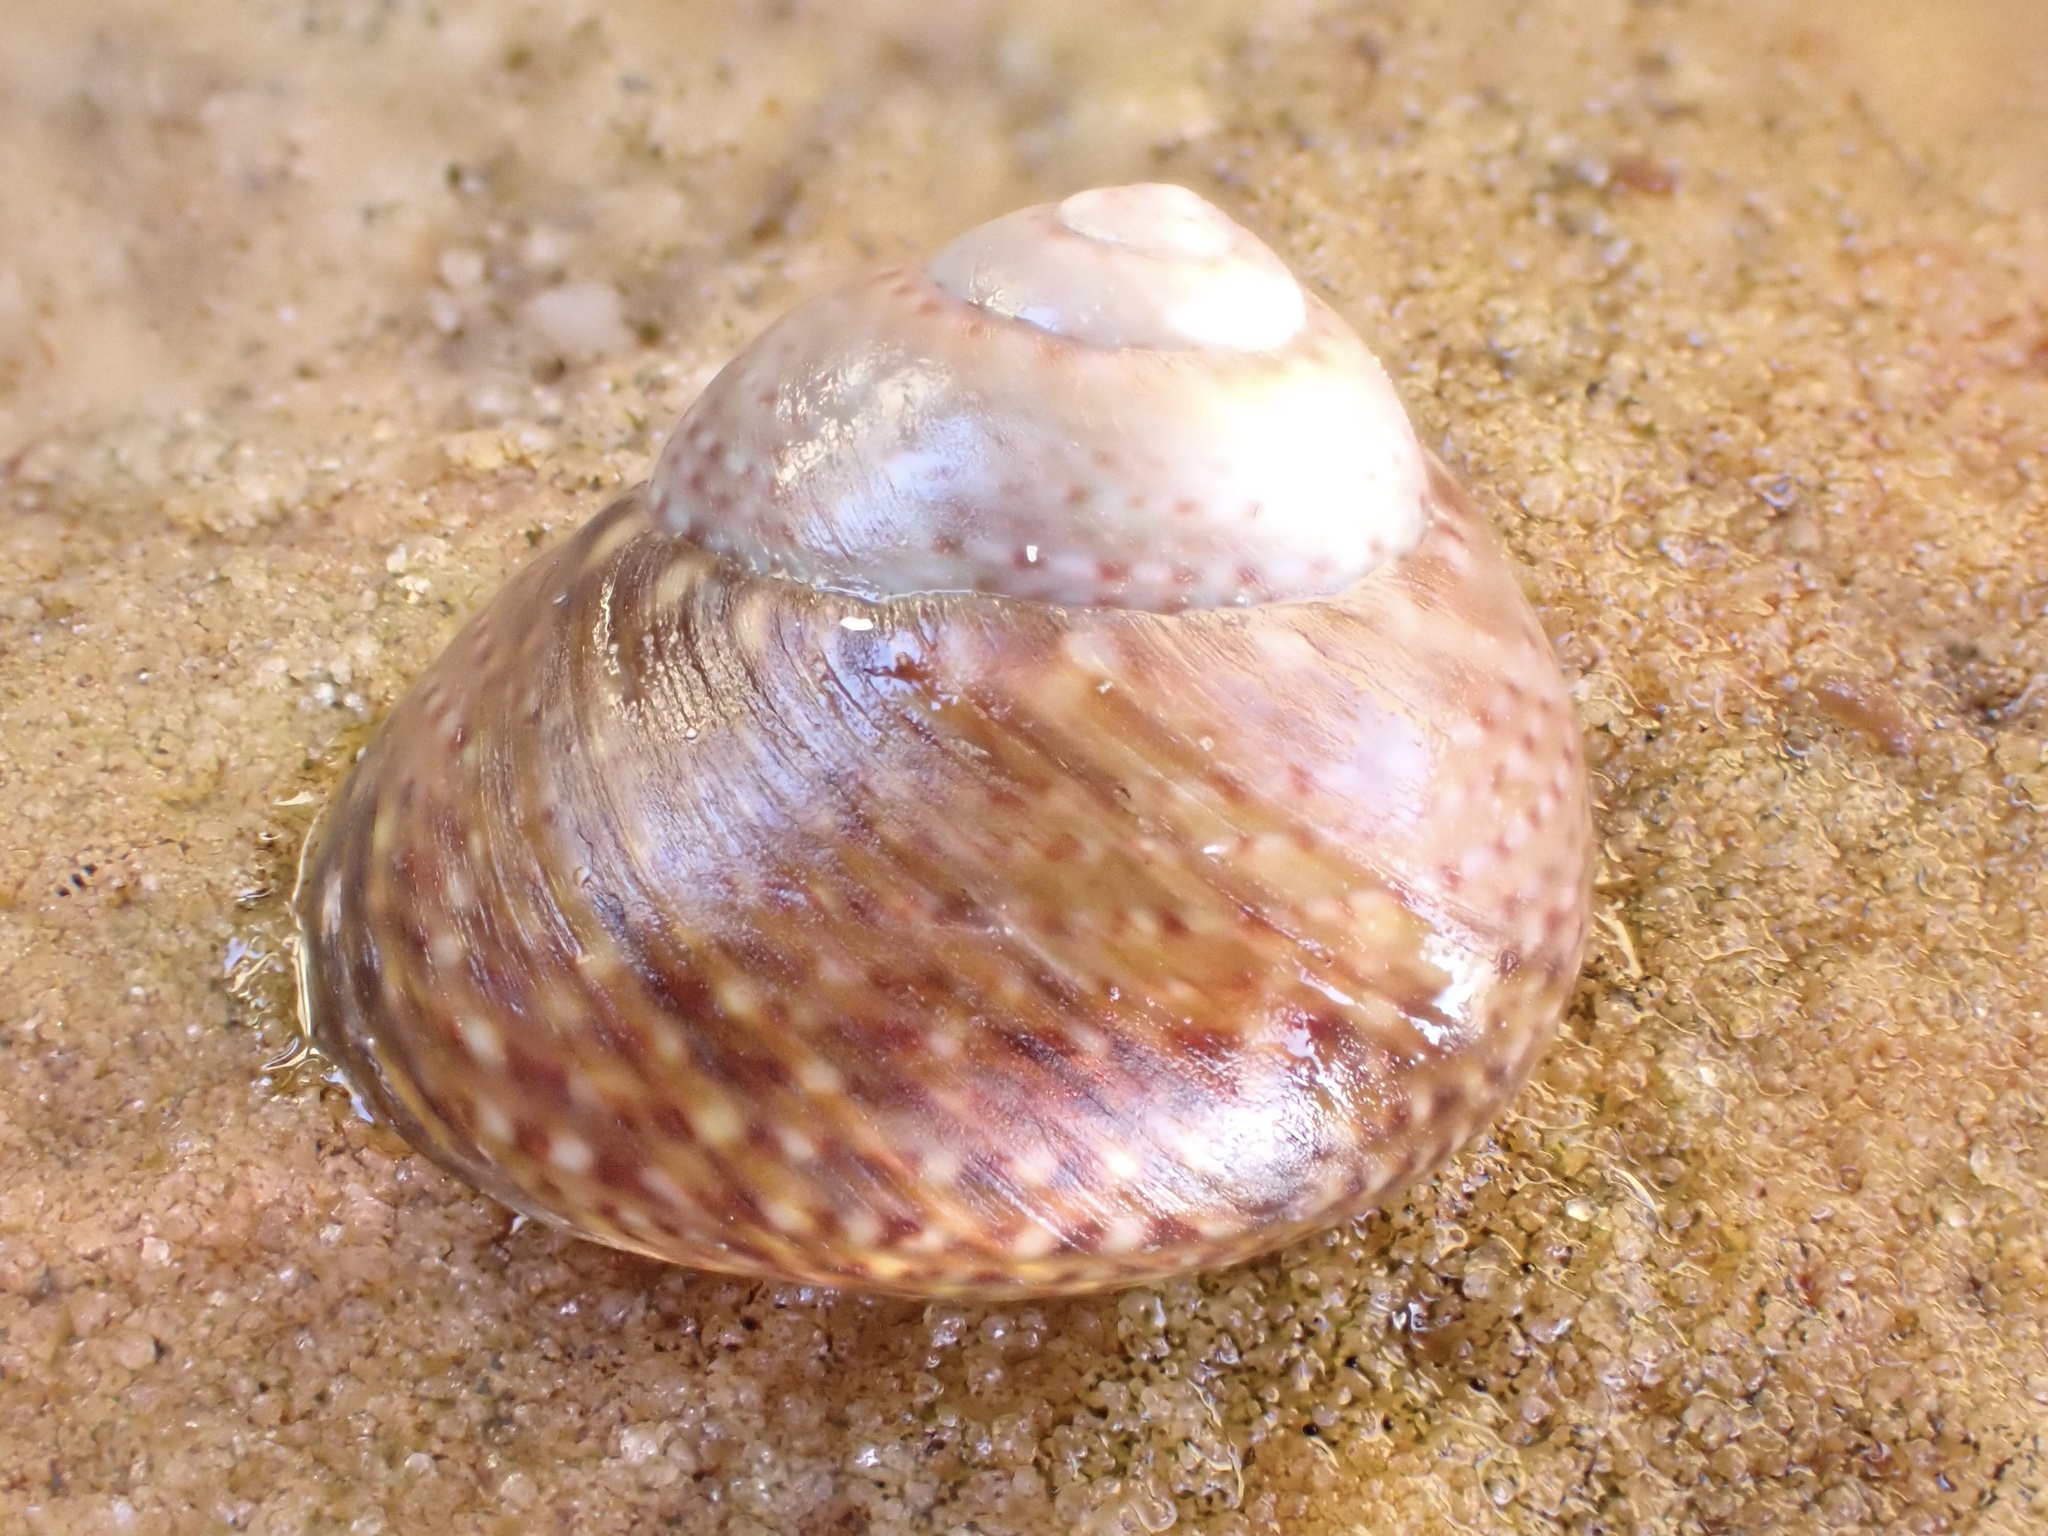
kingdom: Animalia
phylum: Mollusca
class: Gastropoda
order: Trochida
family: Trochidae
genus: Oxystele
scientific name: Oxystele impervia
